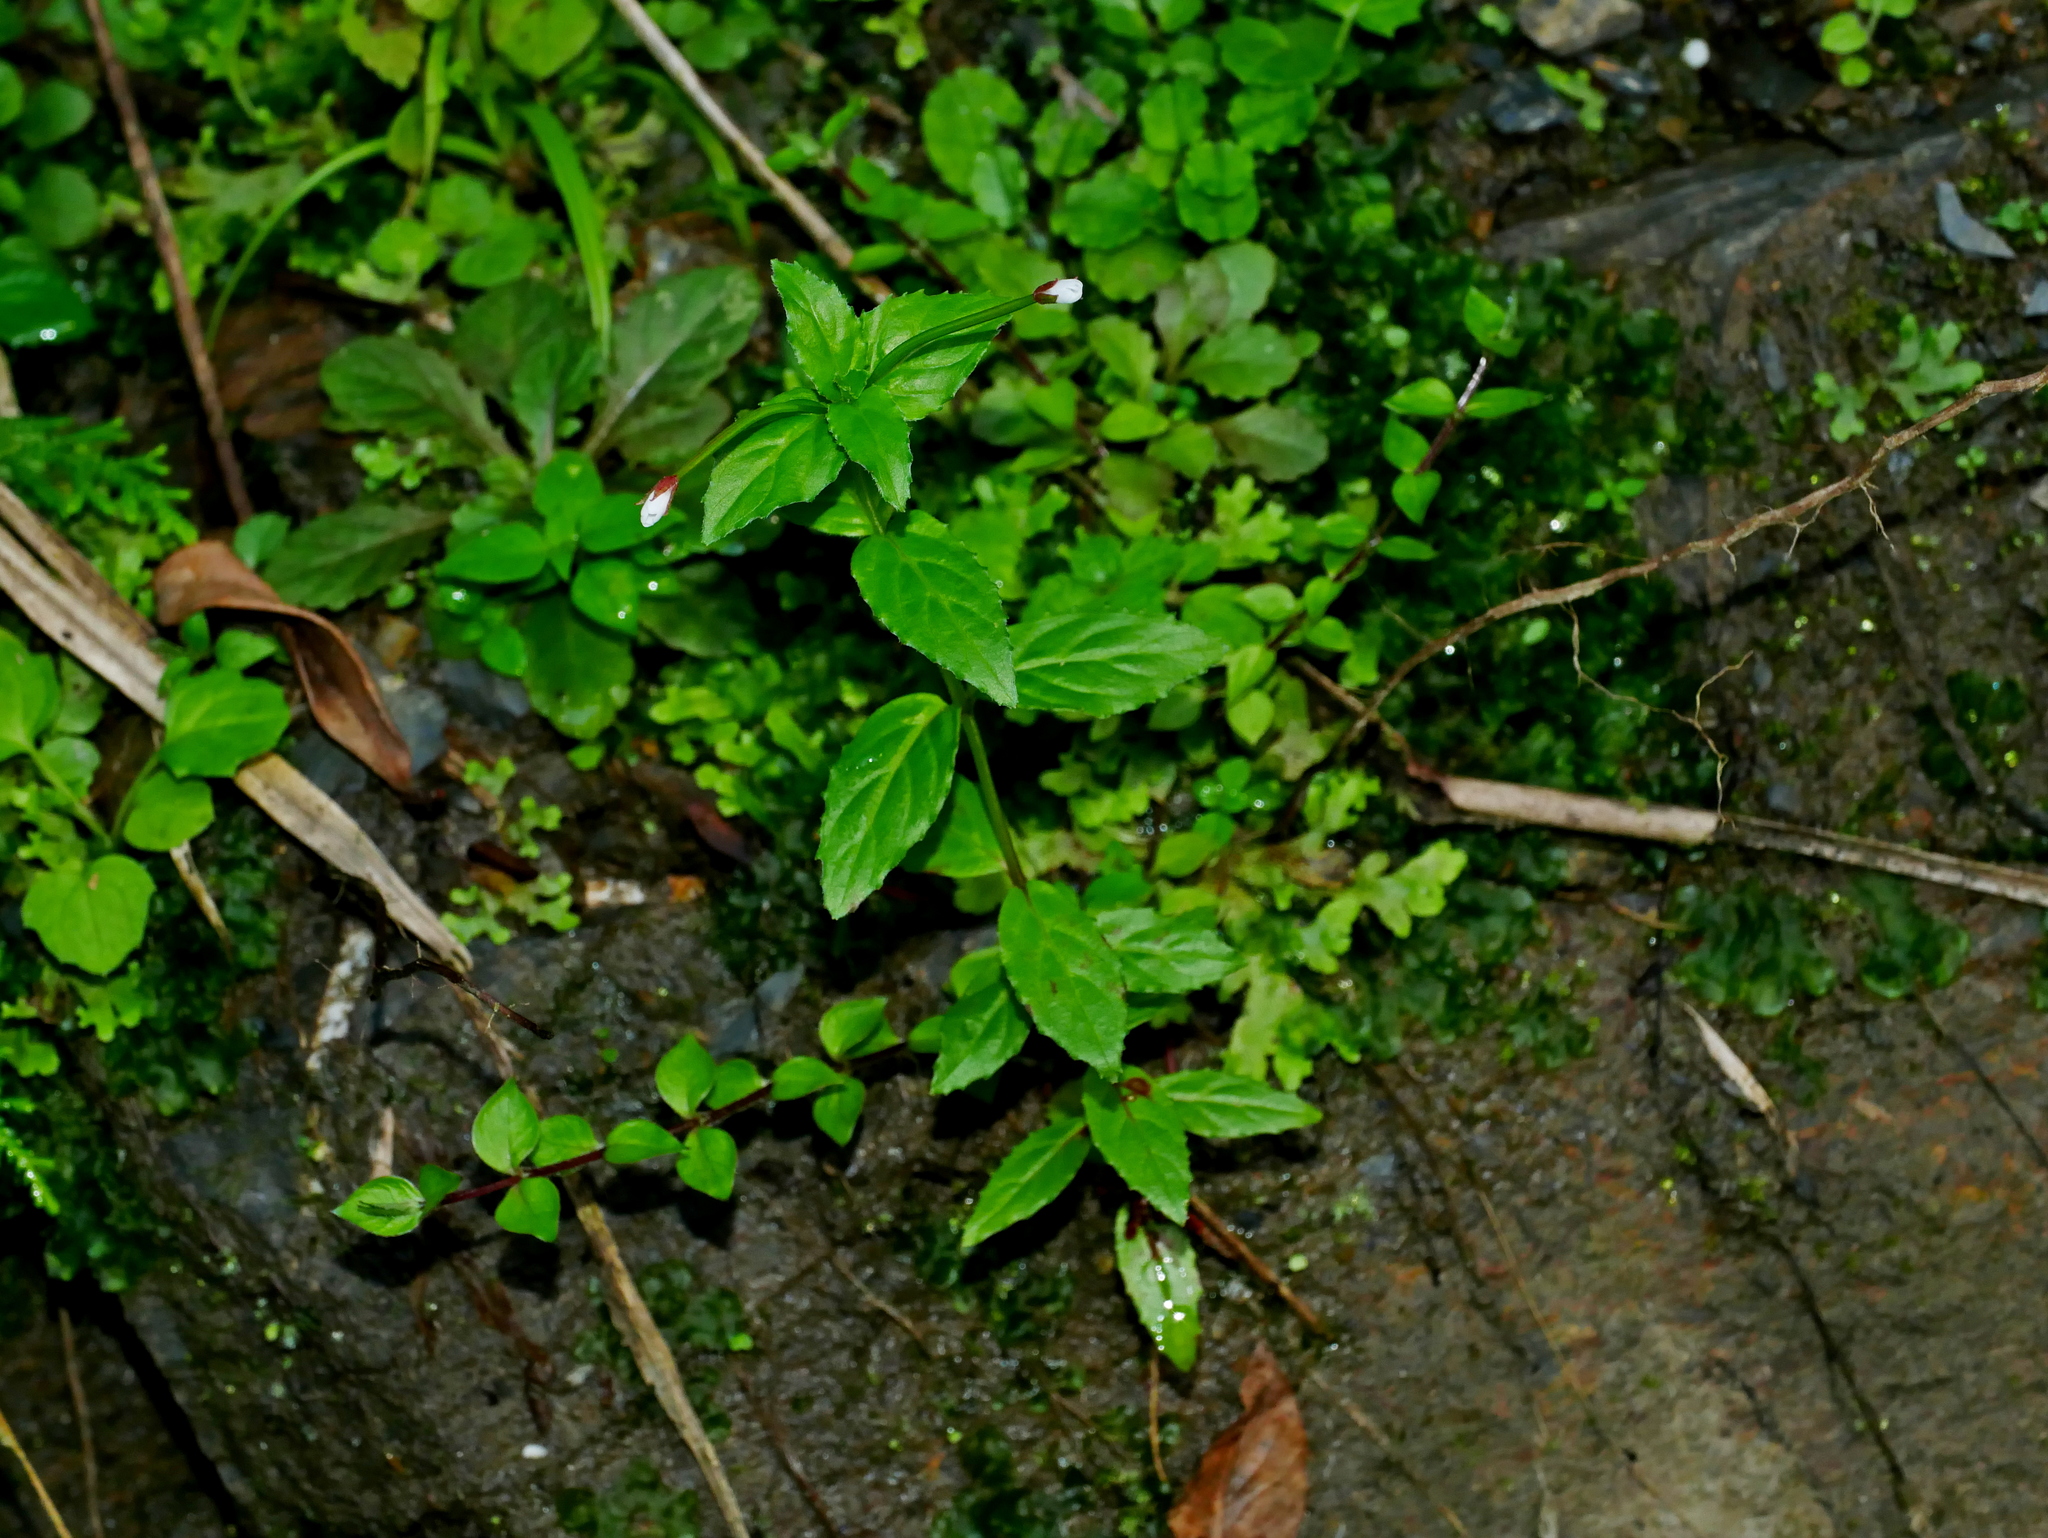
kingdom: Plantae
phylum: Tracheophyta
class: Magnoliopsida
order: Myrtales
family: Onagraceae
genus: Epilobium
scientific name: Epilobium amurense
